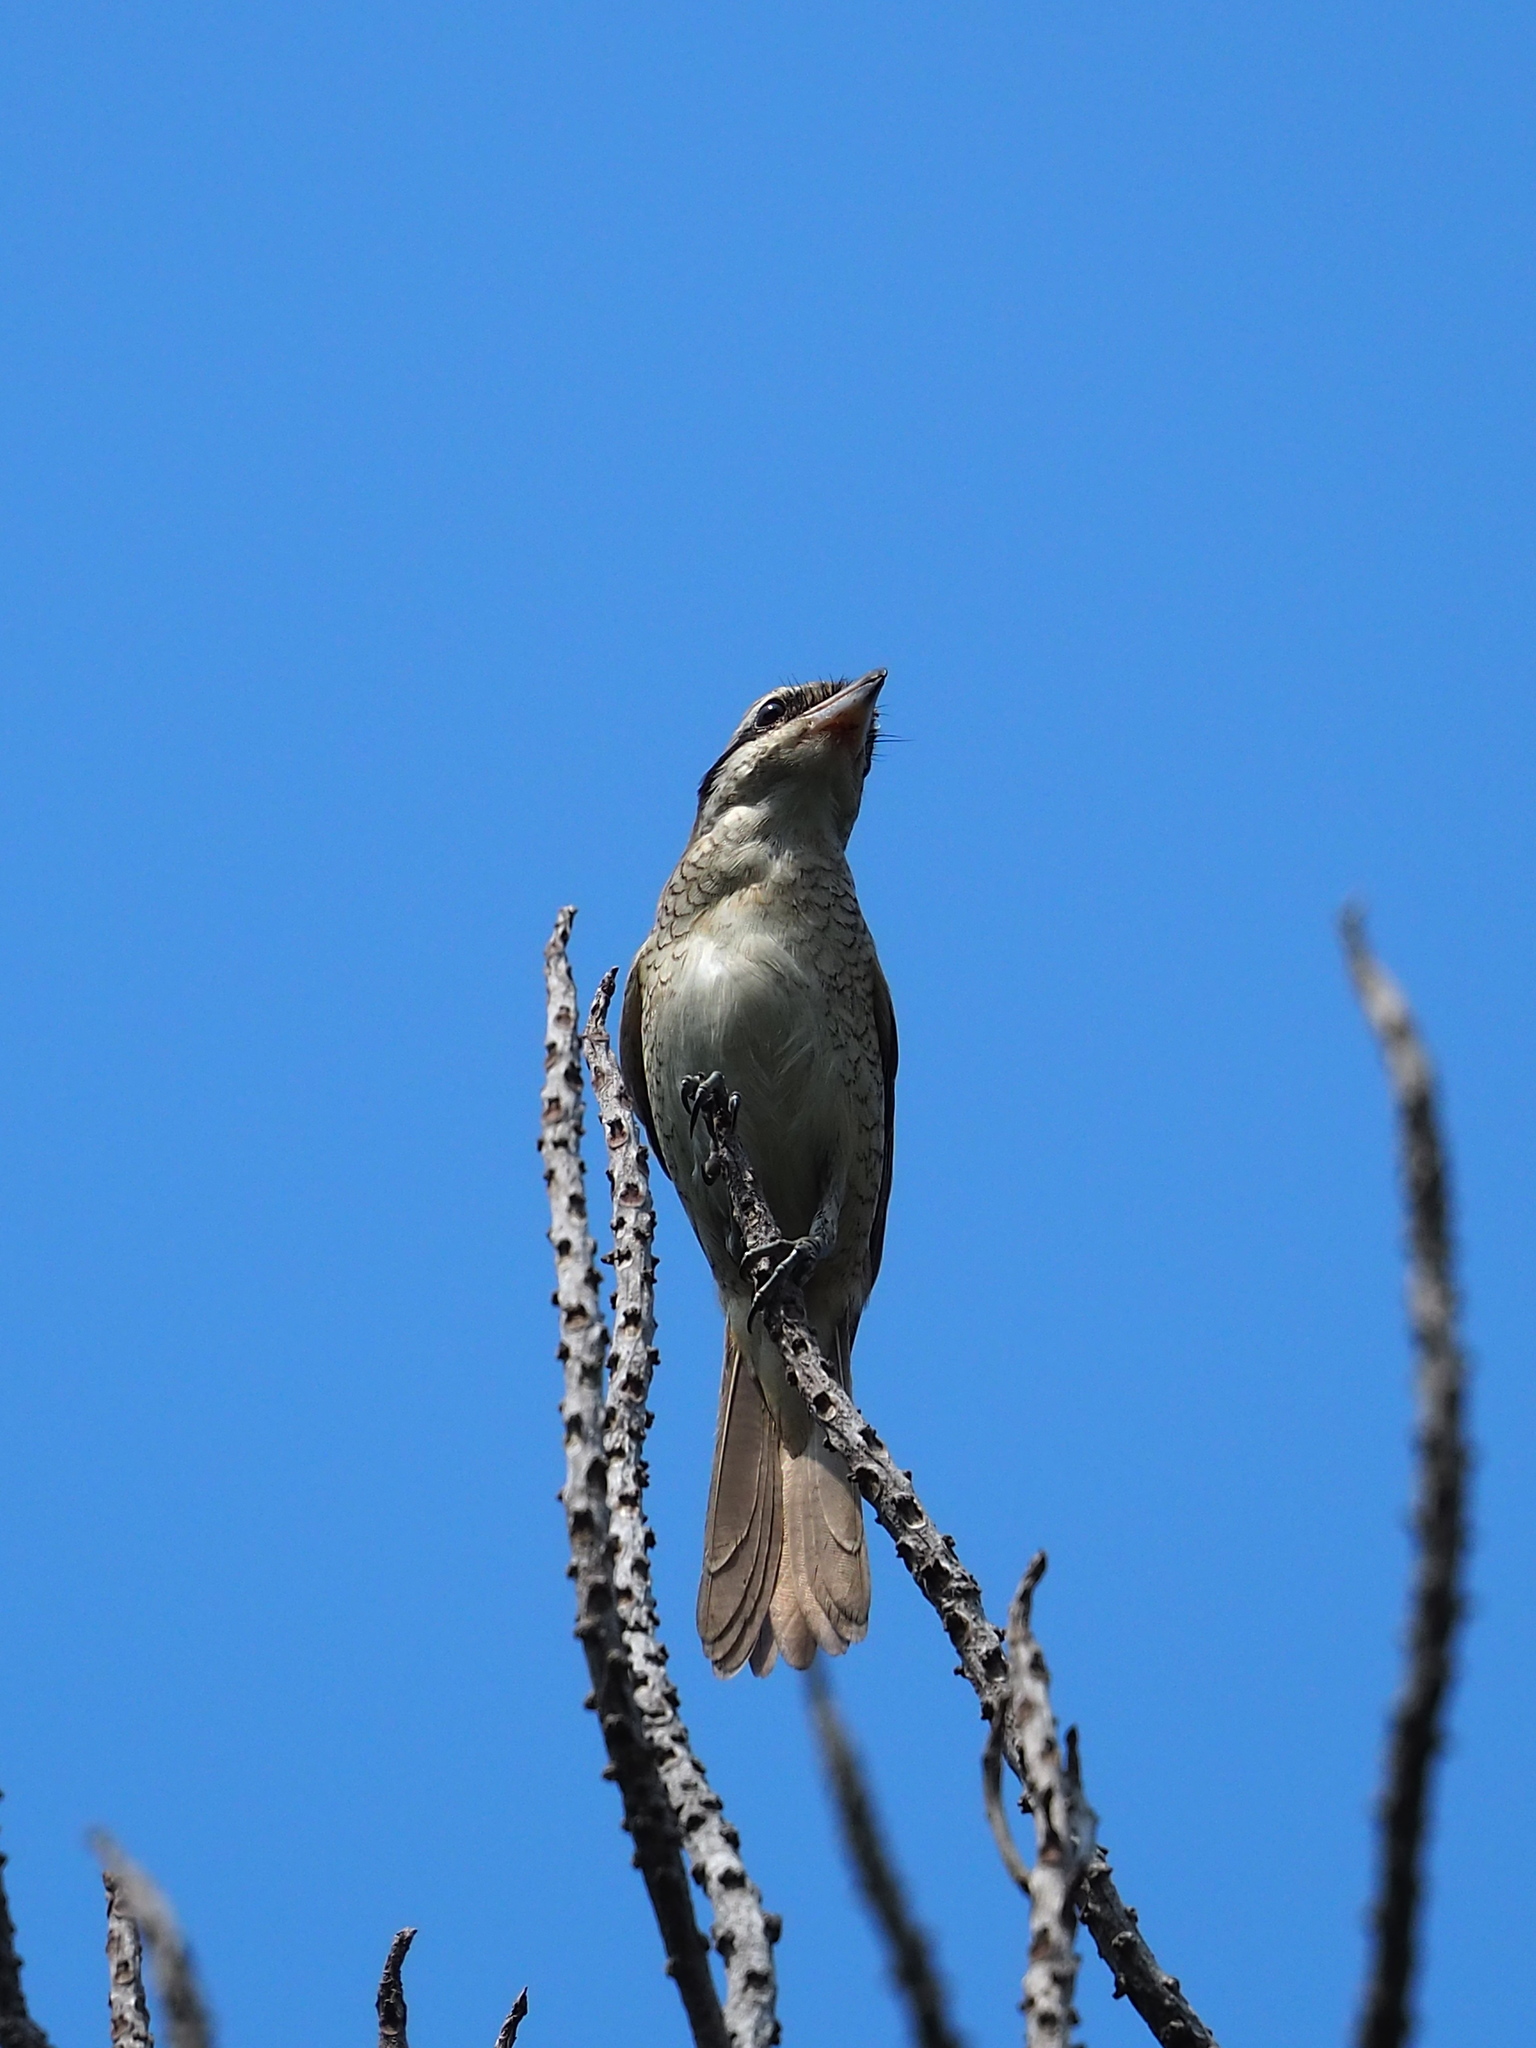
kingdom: Animalia
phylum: Chordata
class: Aves
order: Passeriformes
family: Laniidae
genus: Lanius
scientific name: Lanius cristatus
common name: Brown shrike
